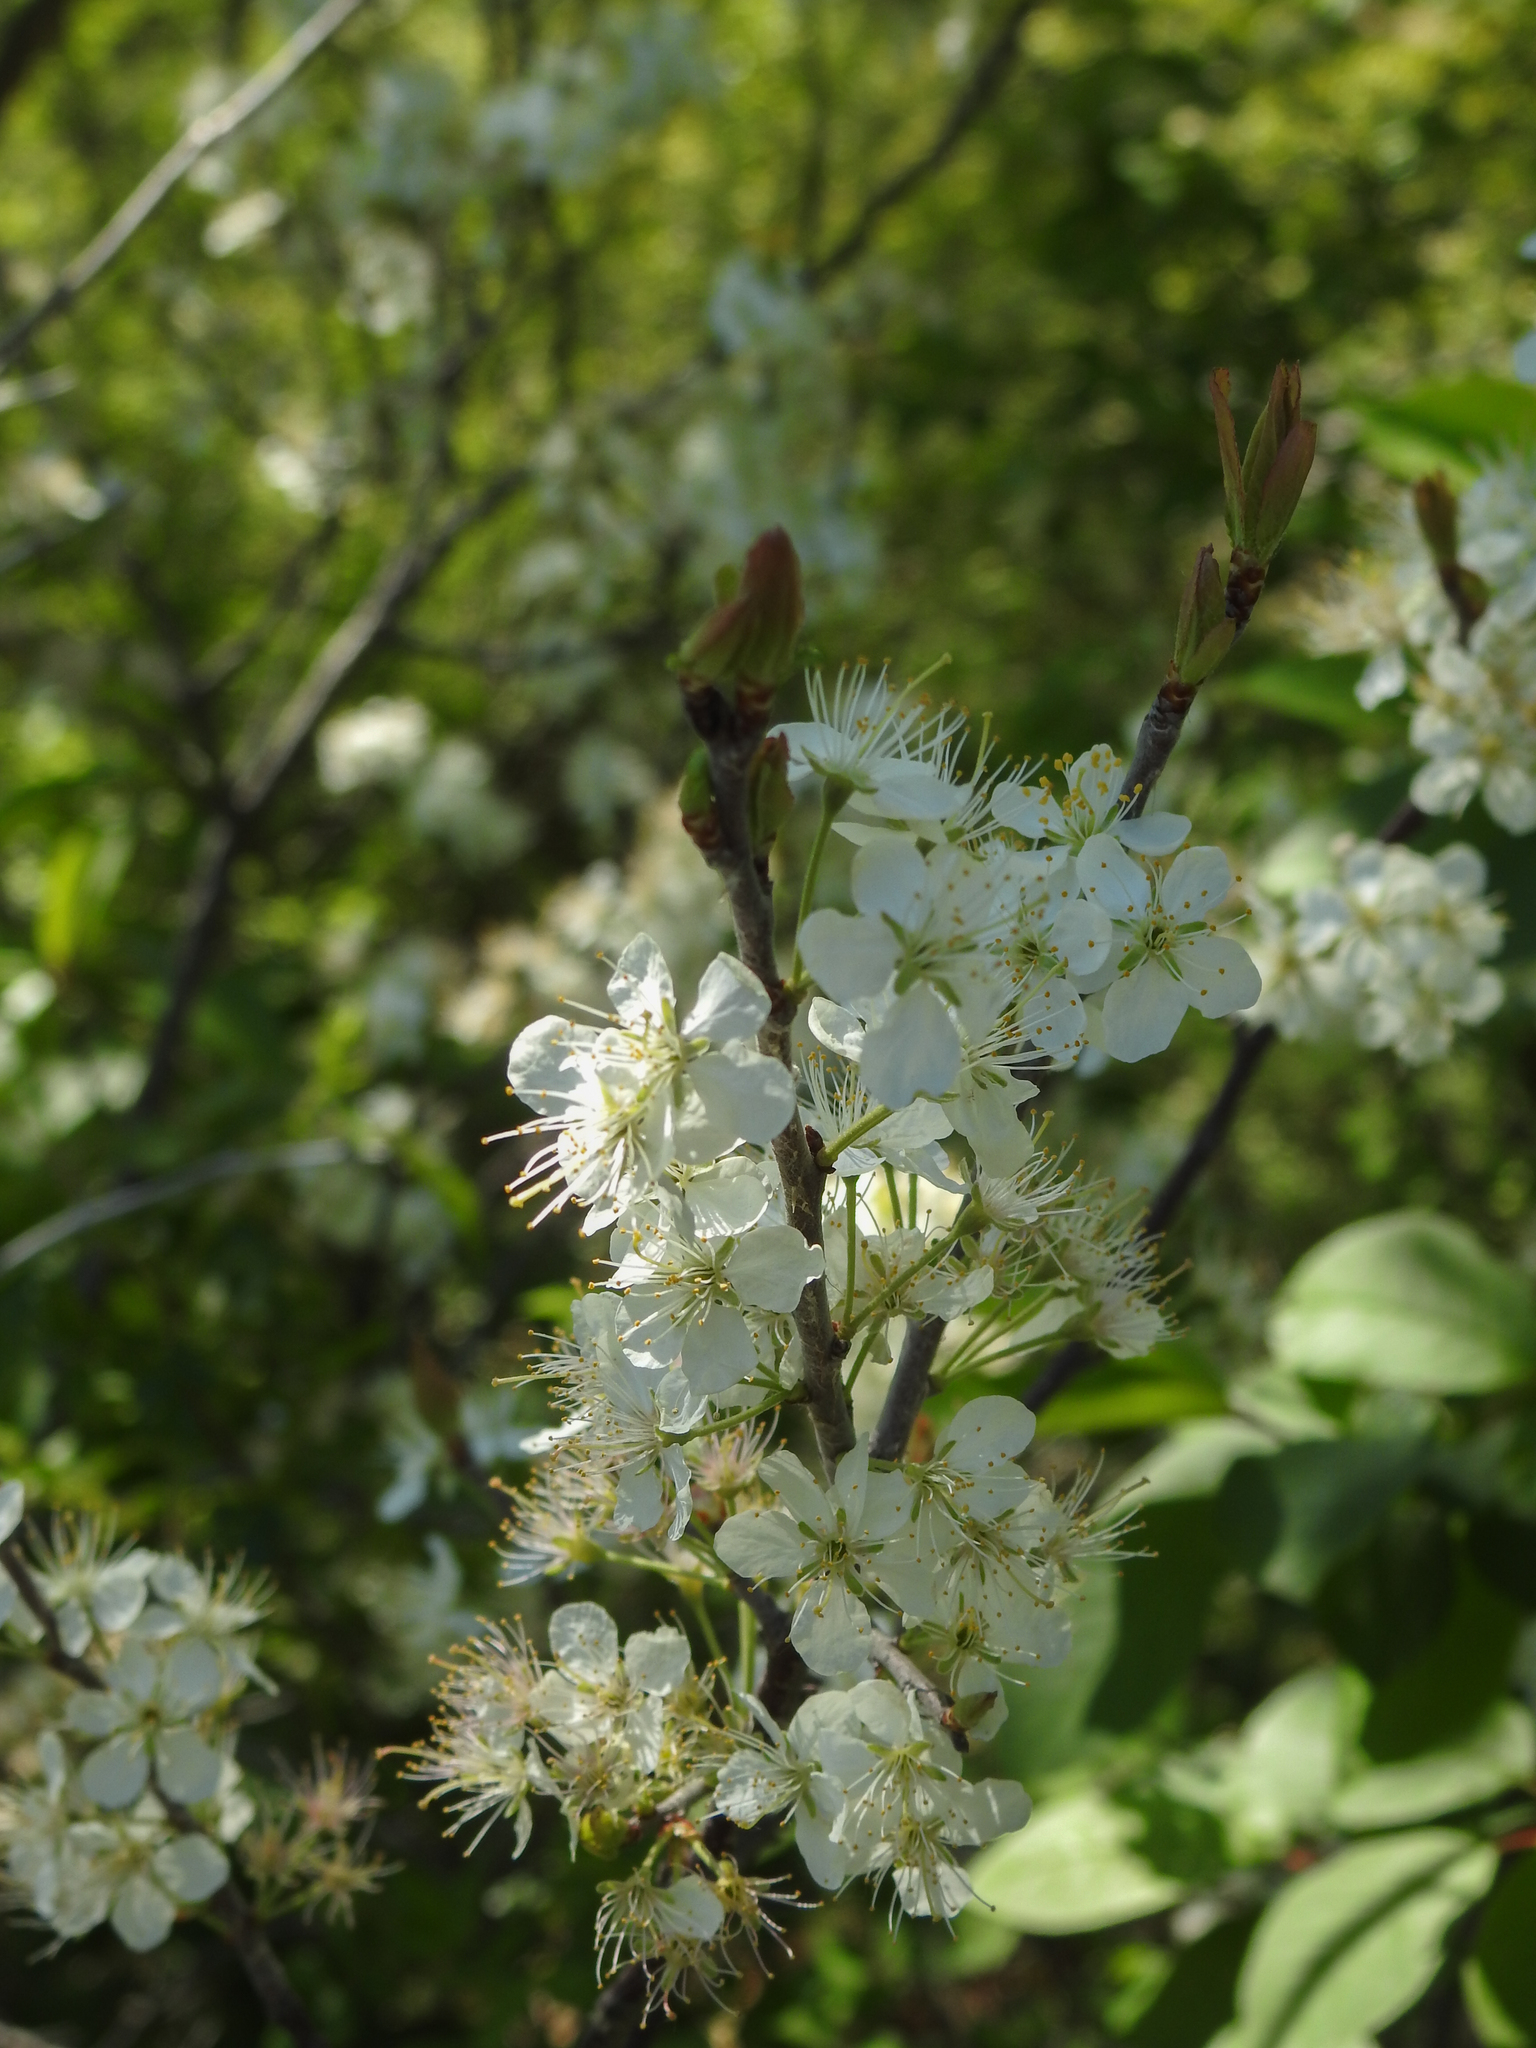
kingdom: Plantae
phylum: Tracheophyta
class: Magnoliopsida
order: Rosales
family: Rosaceae
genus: Prunus
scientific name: Prunus maritima
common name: Beach plum
